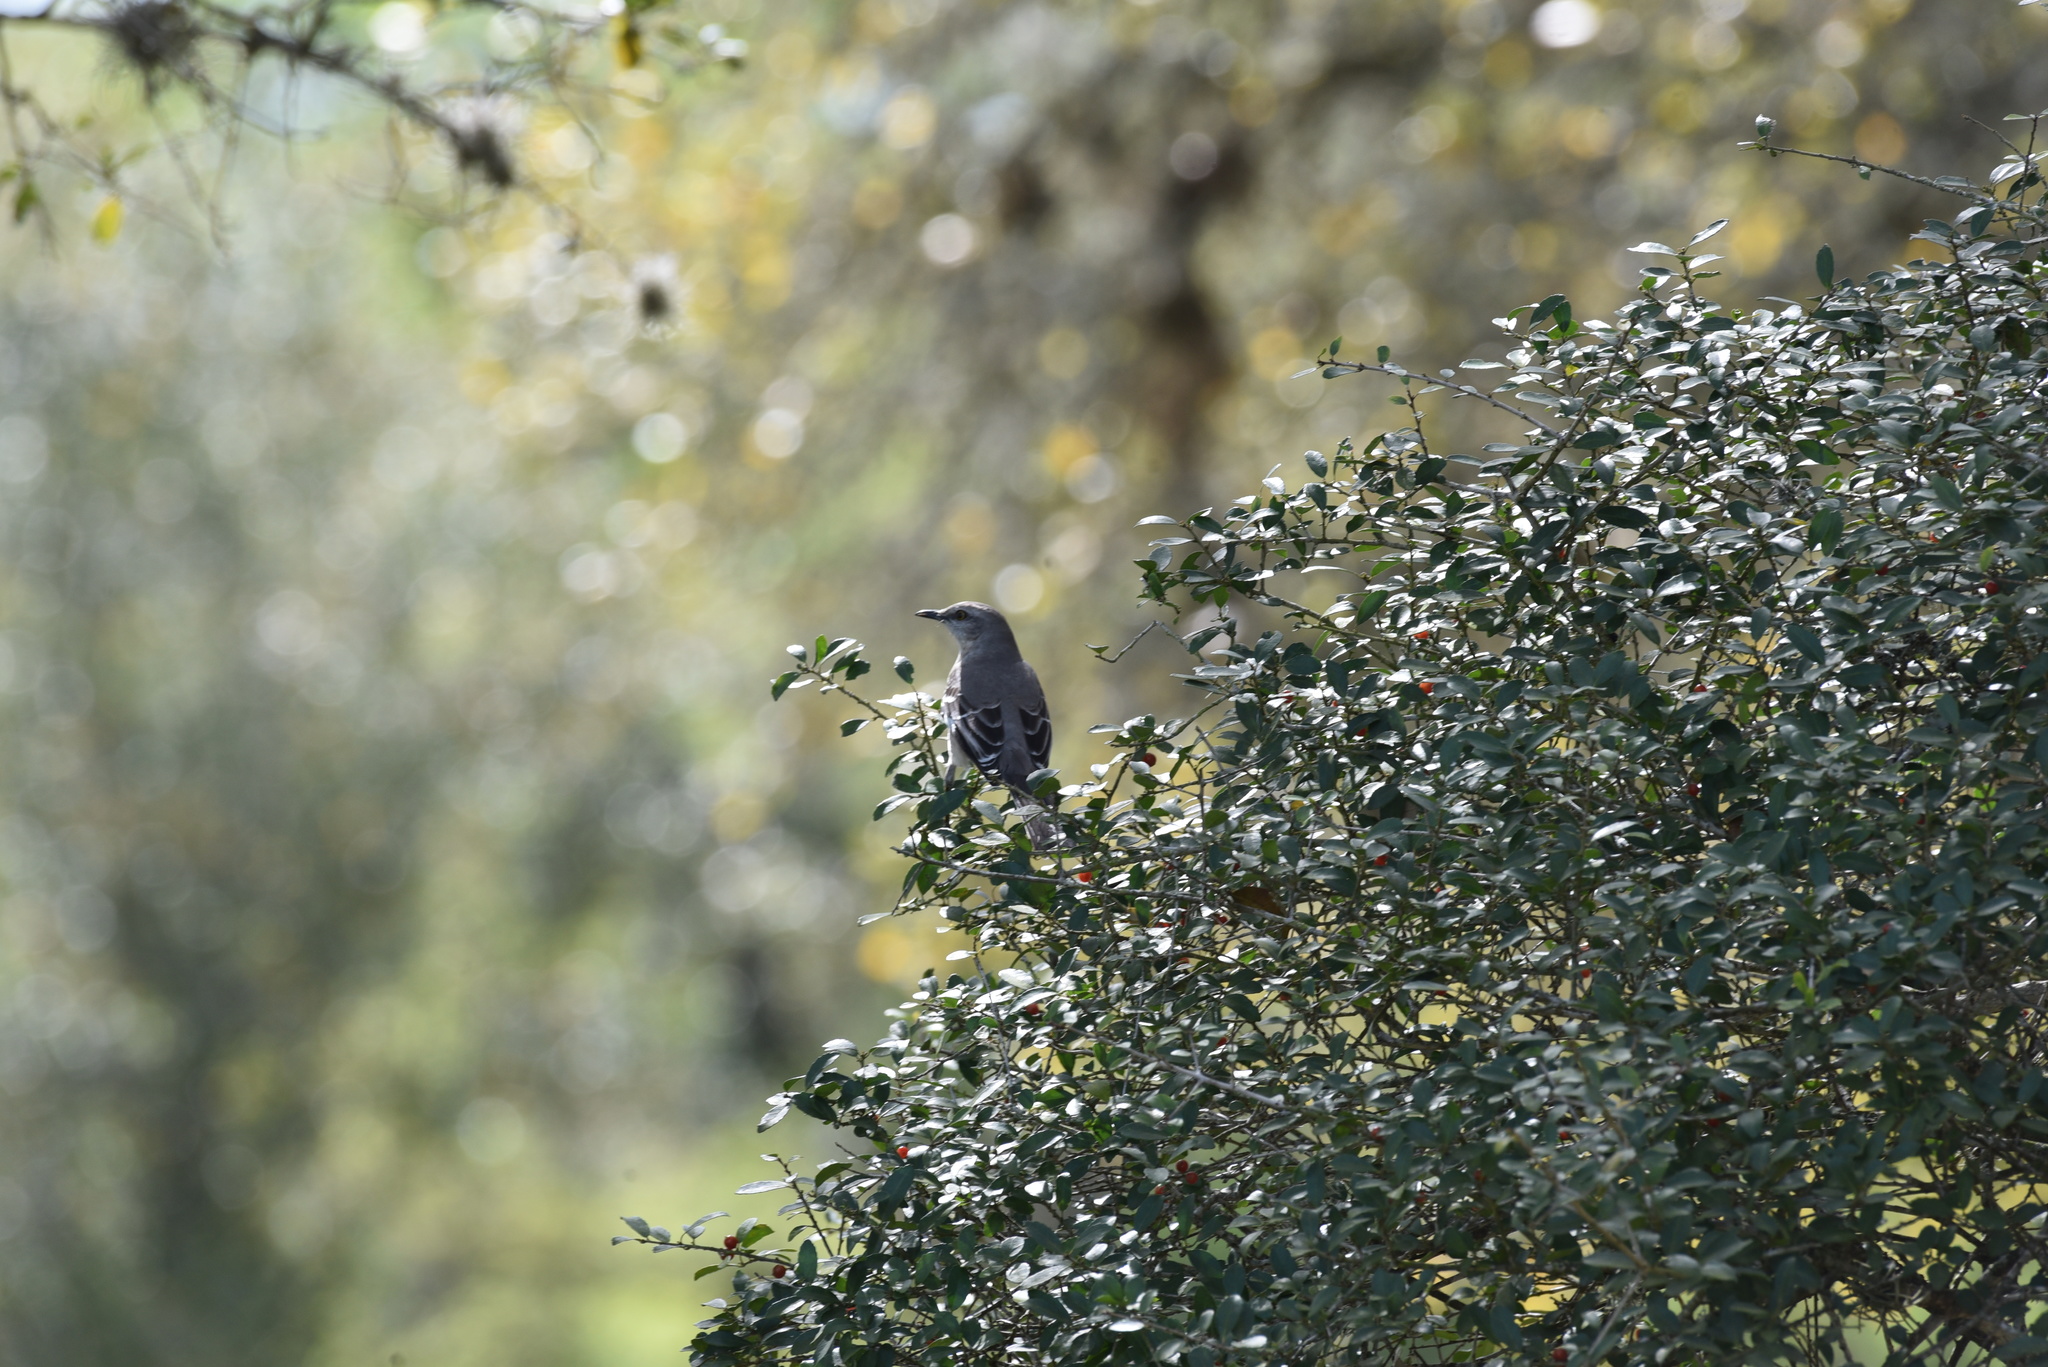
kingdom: Animalia
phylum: Chordata
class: Aves
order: Passeriformes
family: Mimidae
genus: Mimus
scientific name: Mimus polyglottos
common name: Northern mockingbird
